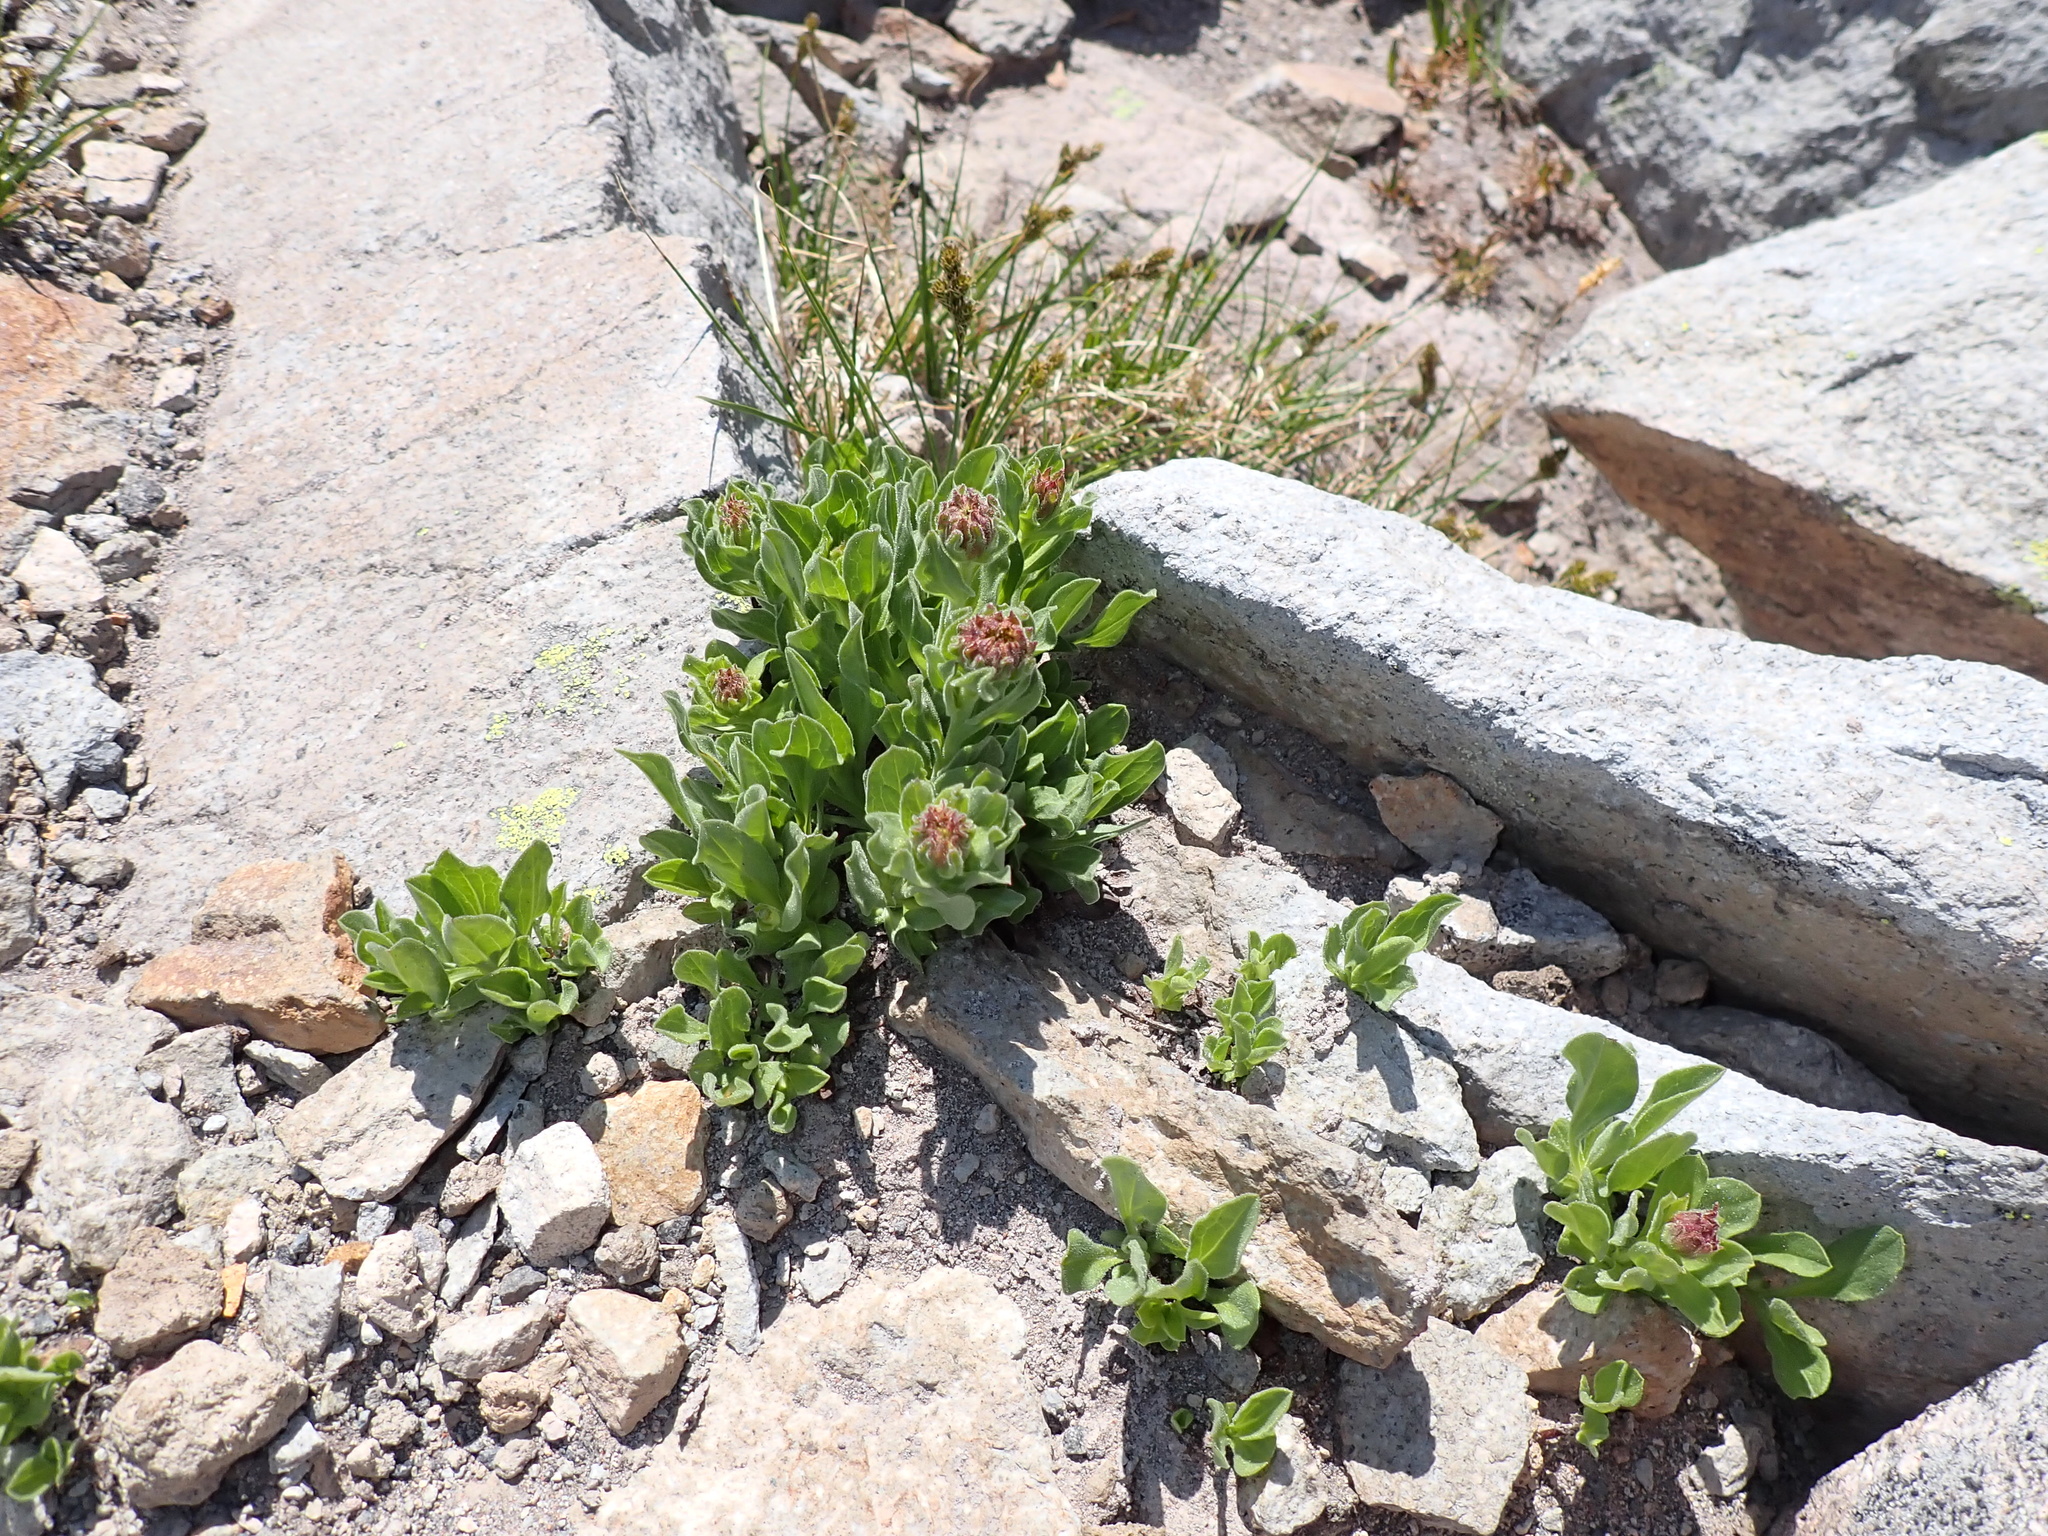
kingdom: Plantae
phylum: Tracheophyta
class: Magnoliopsida
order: Saxifragales
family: Crassulaceae
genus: Rhodiola
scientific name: Rhodiola integrifolia
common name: Western roseroot
